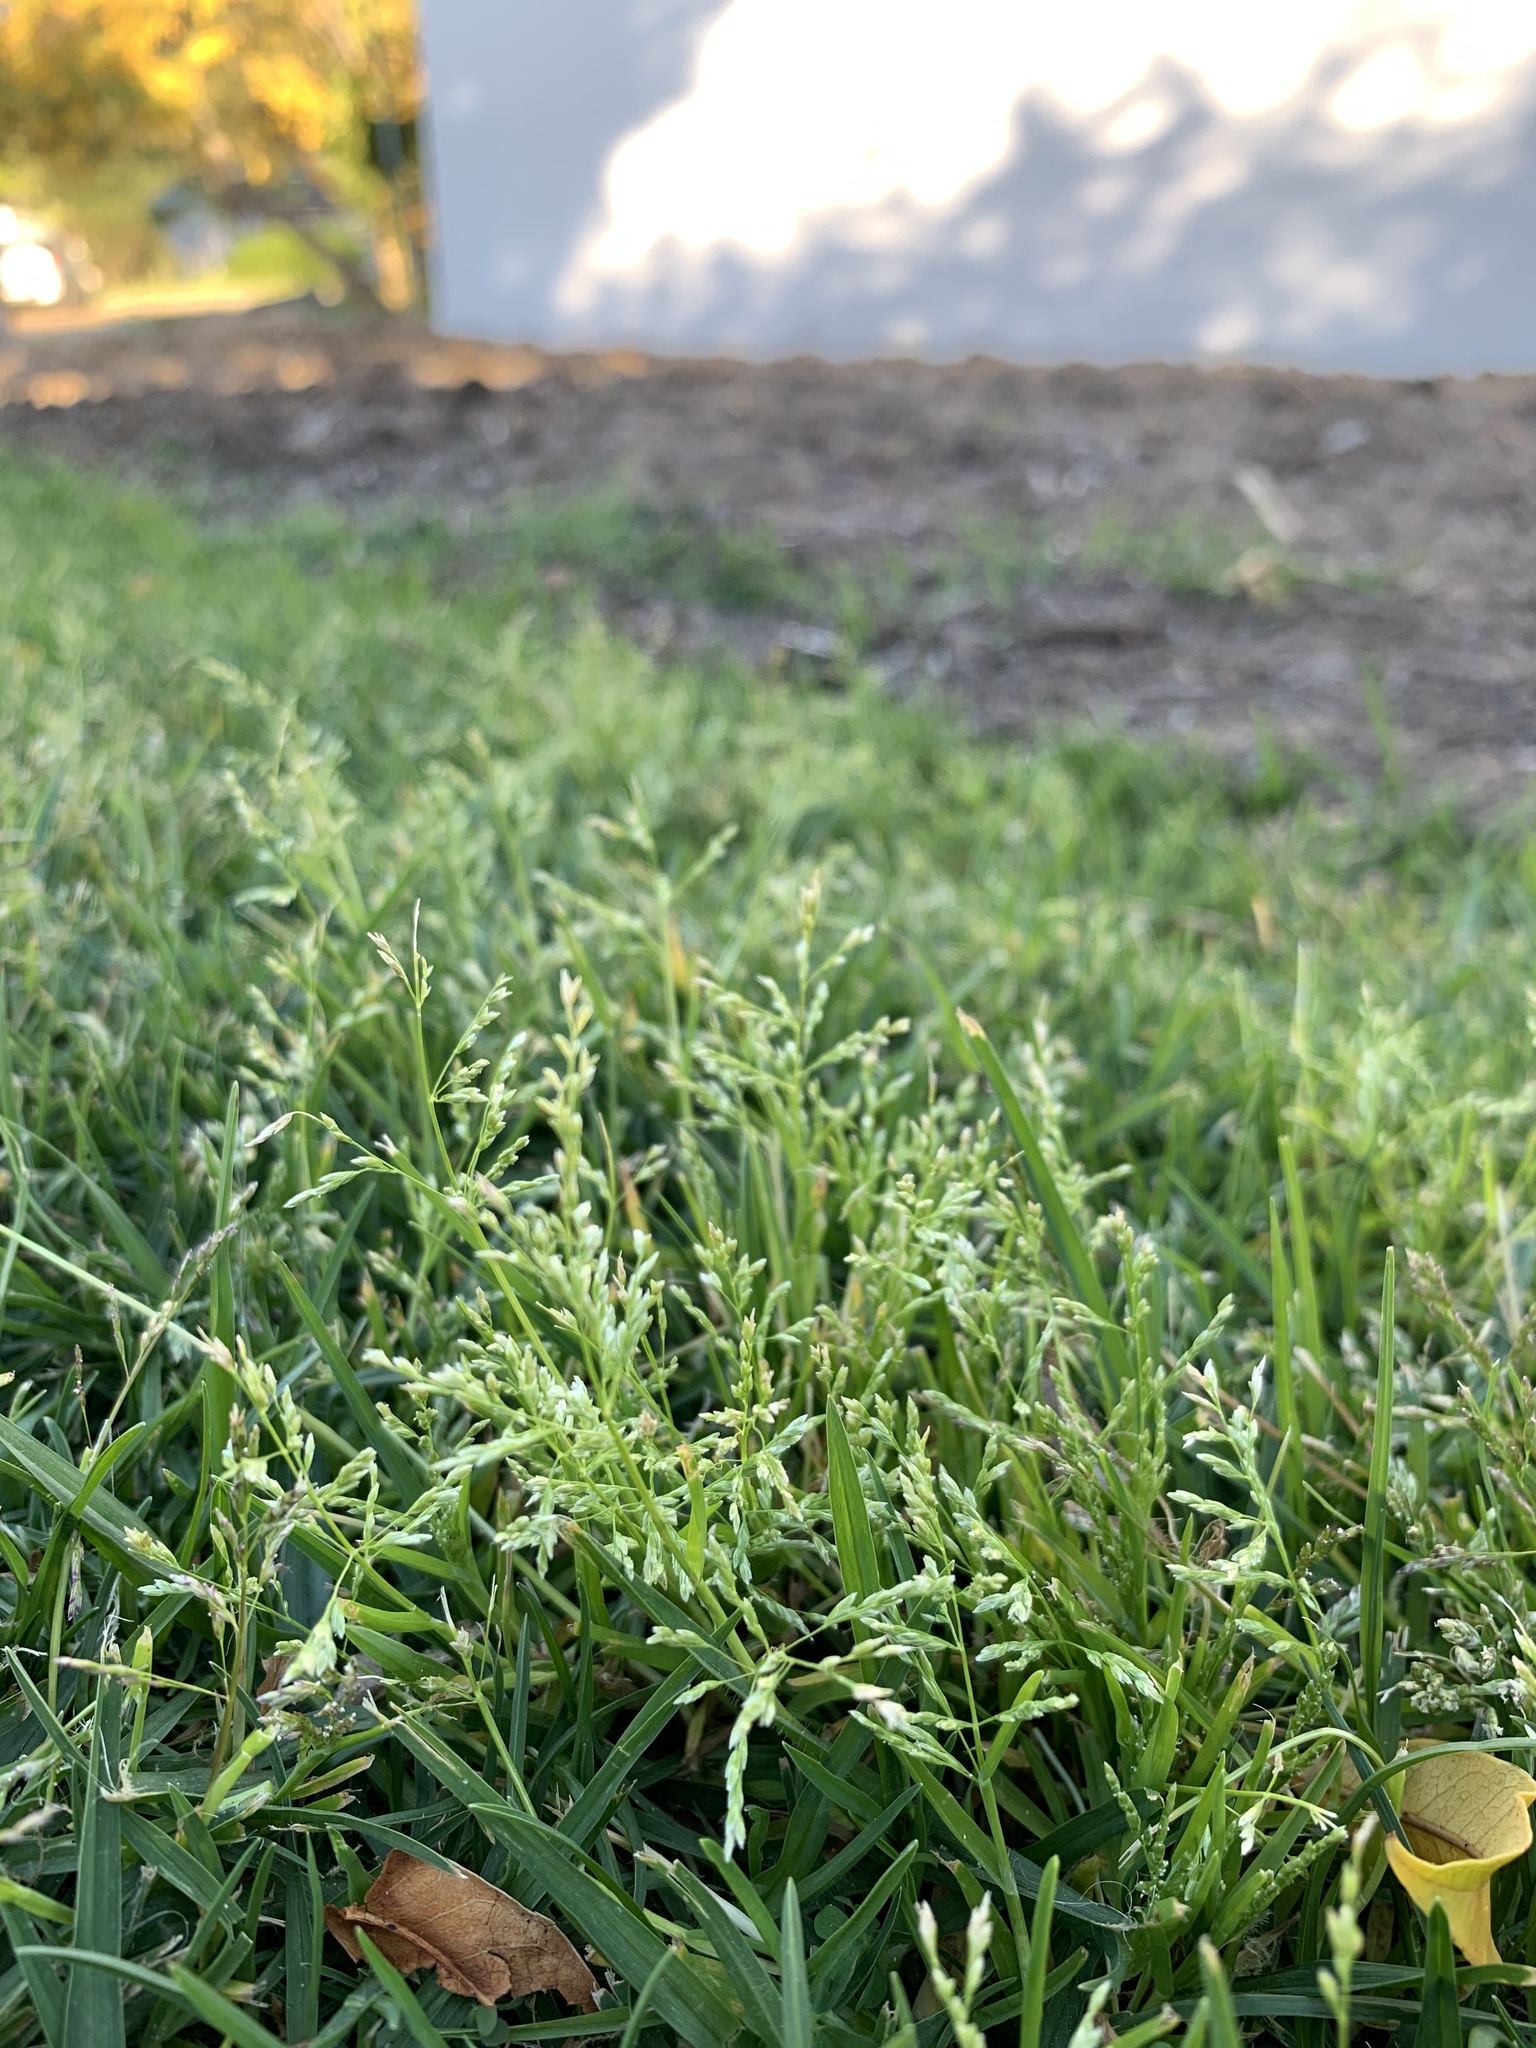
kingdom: Plantae
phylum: Tracheophyta
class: Liliopsida
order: Poales
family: Poaceae
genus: Poa
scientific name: Poa annua
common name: Annual bluegrass
